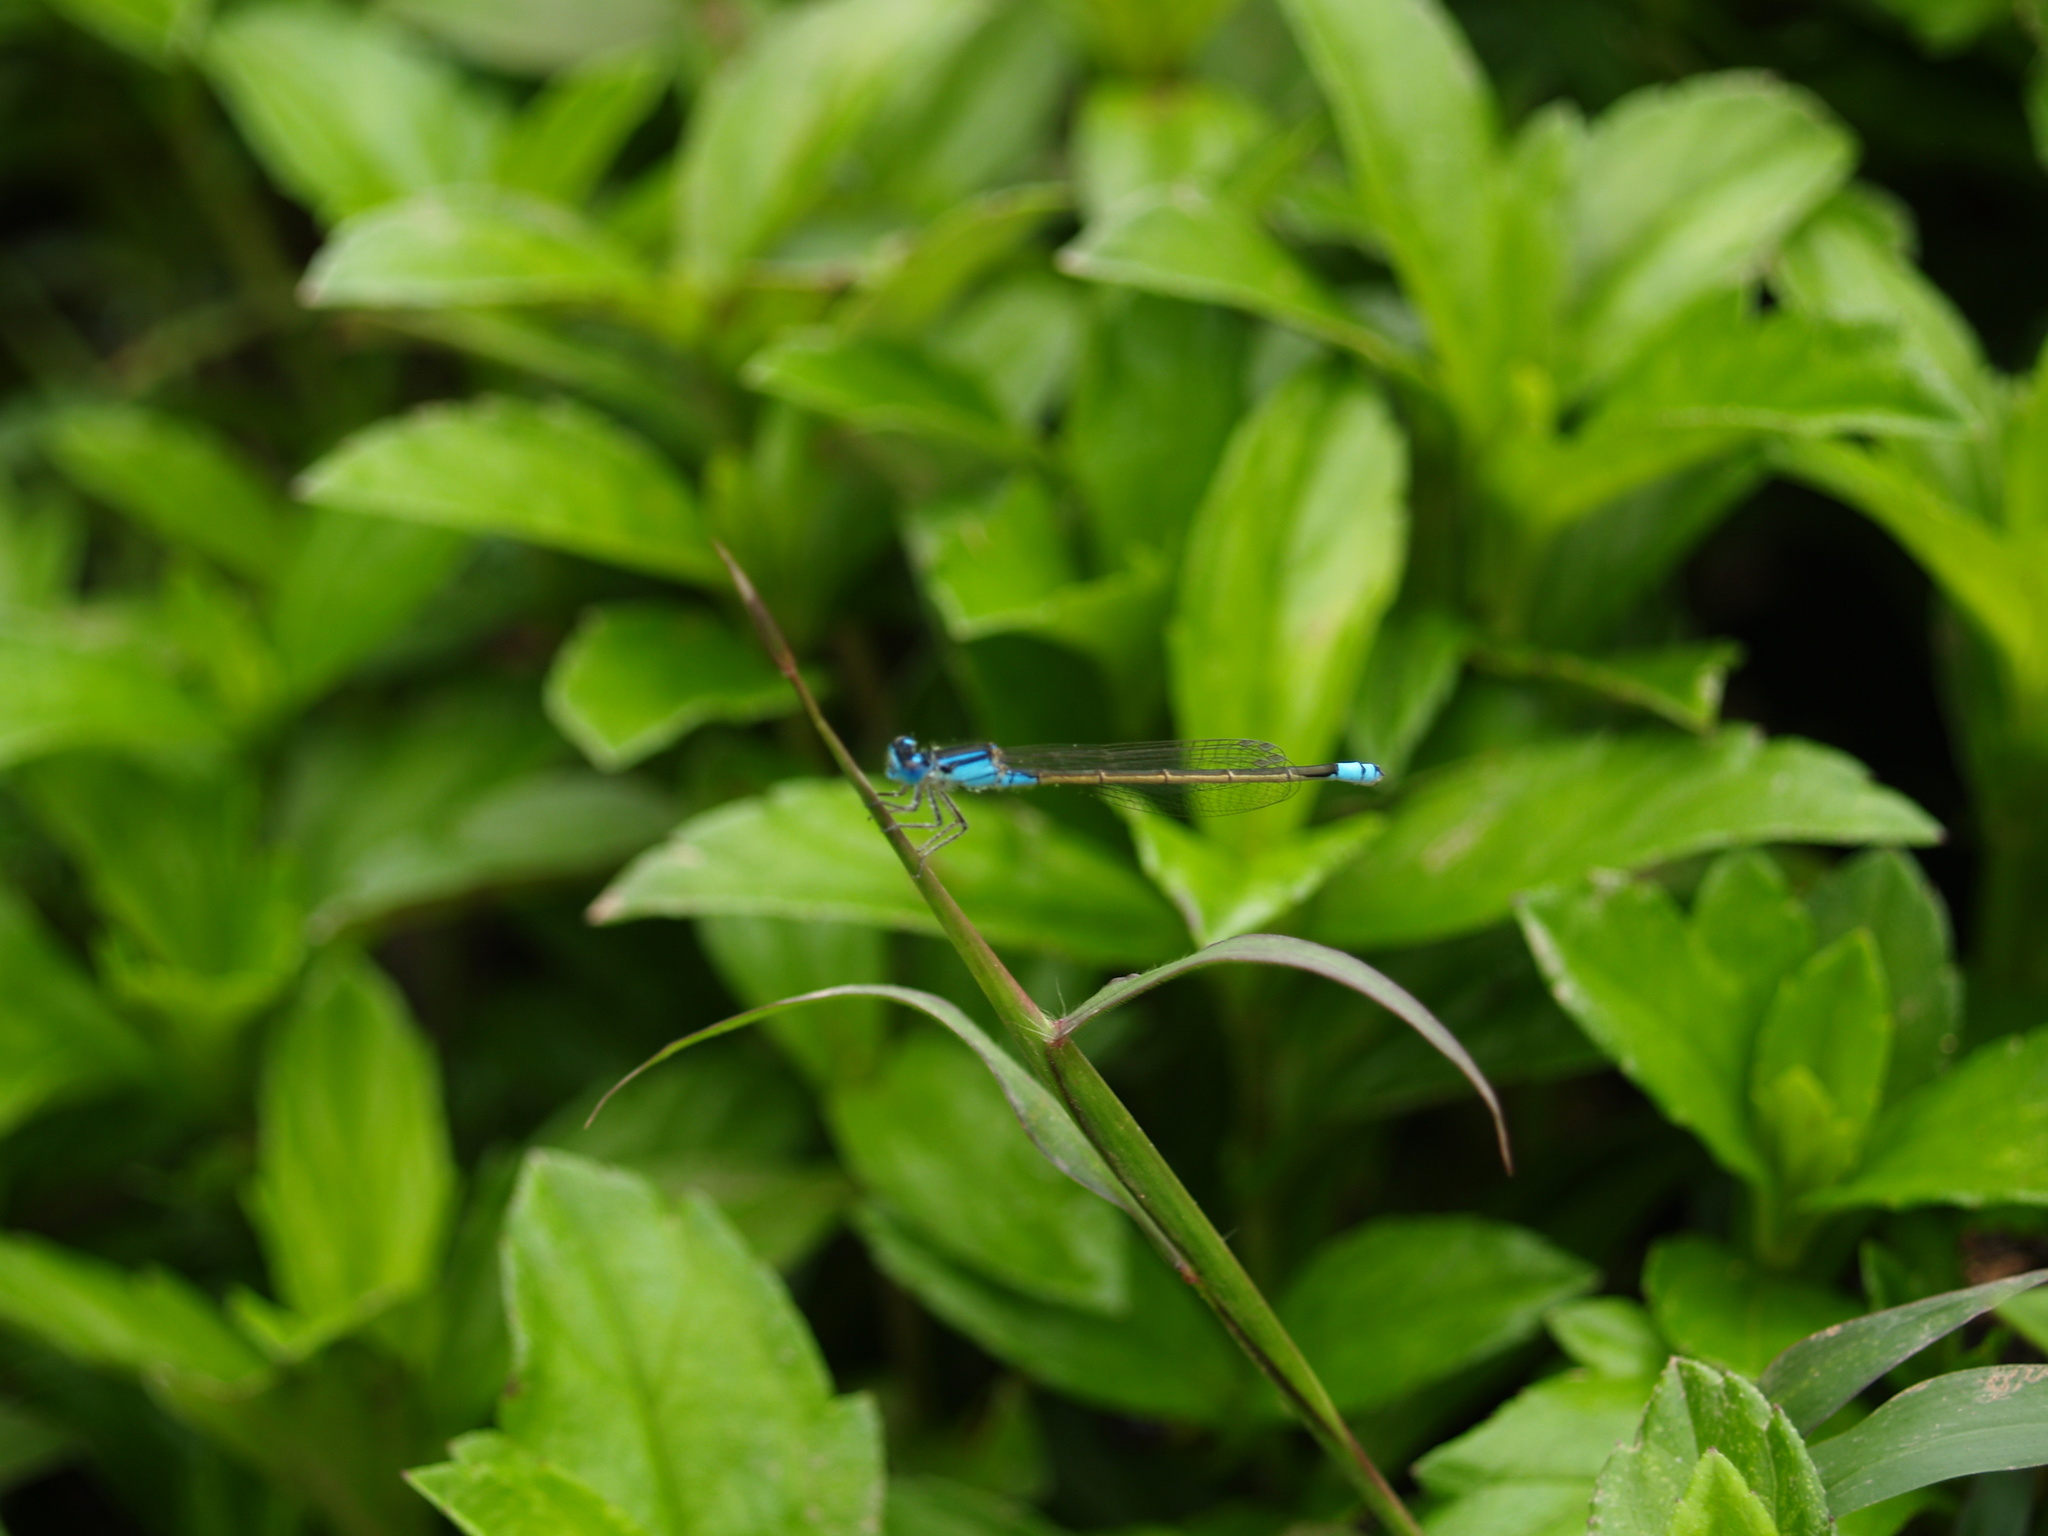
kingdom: Animalia
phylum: Arthropoda
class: Insecta
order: Odonata
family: Coenagrionidae
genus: Ischnura
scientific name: Ischnura heterosticta
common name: Common bluetail
